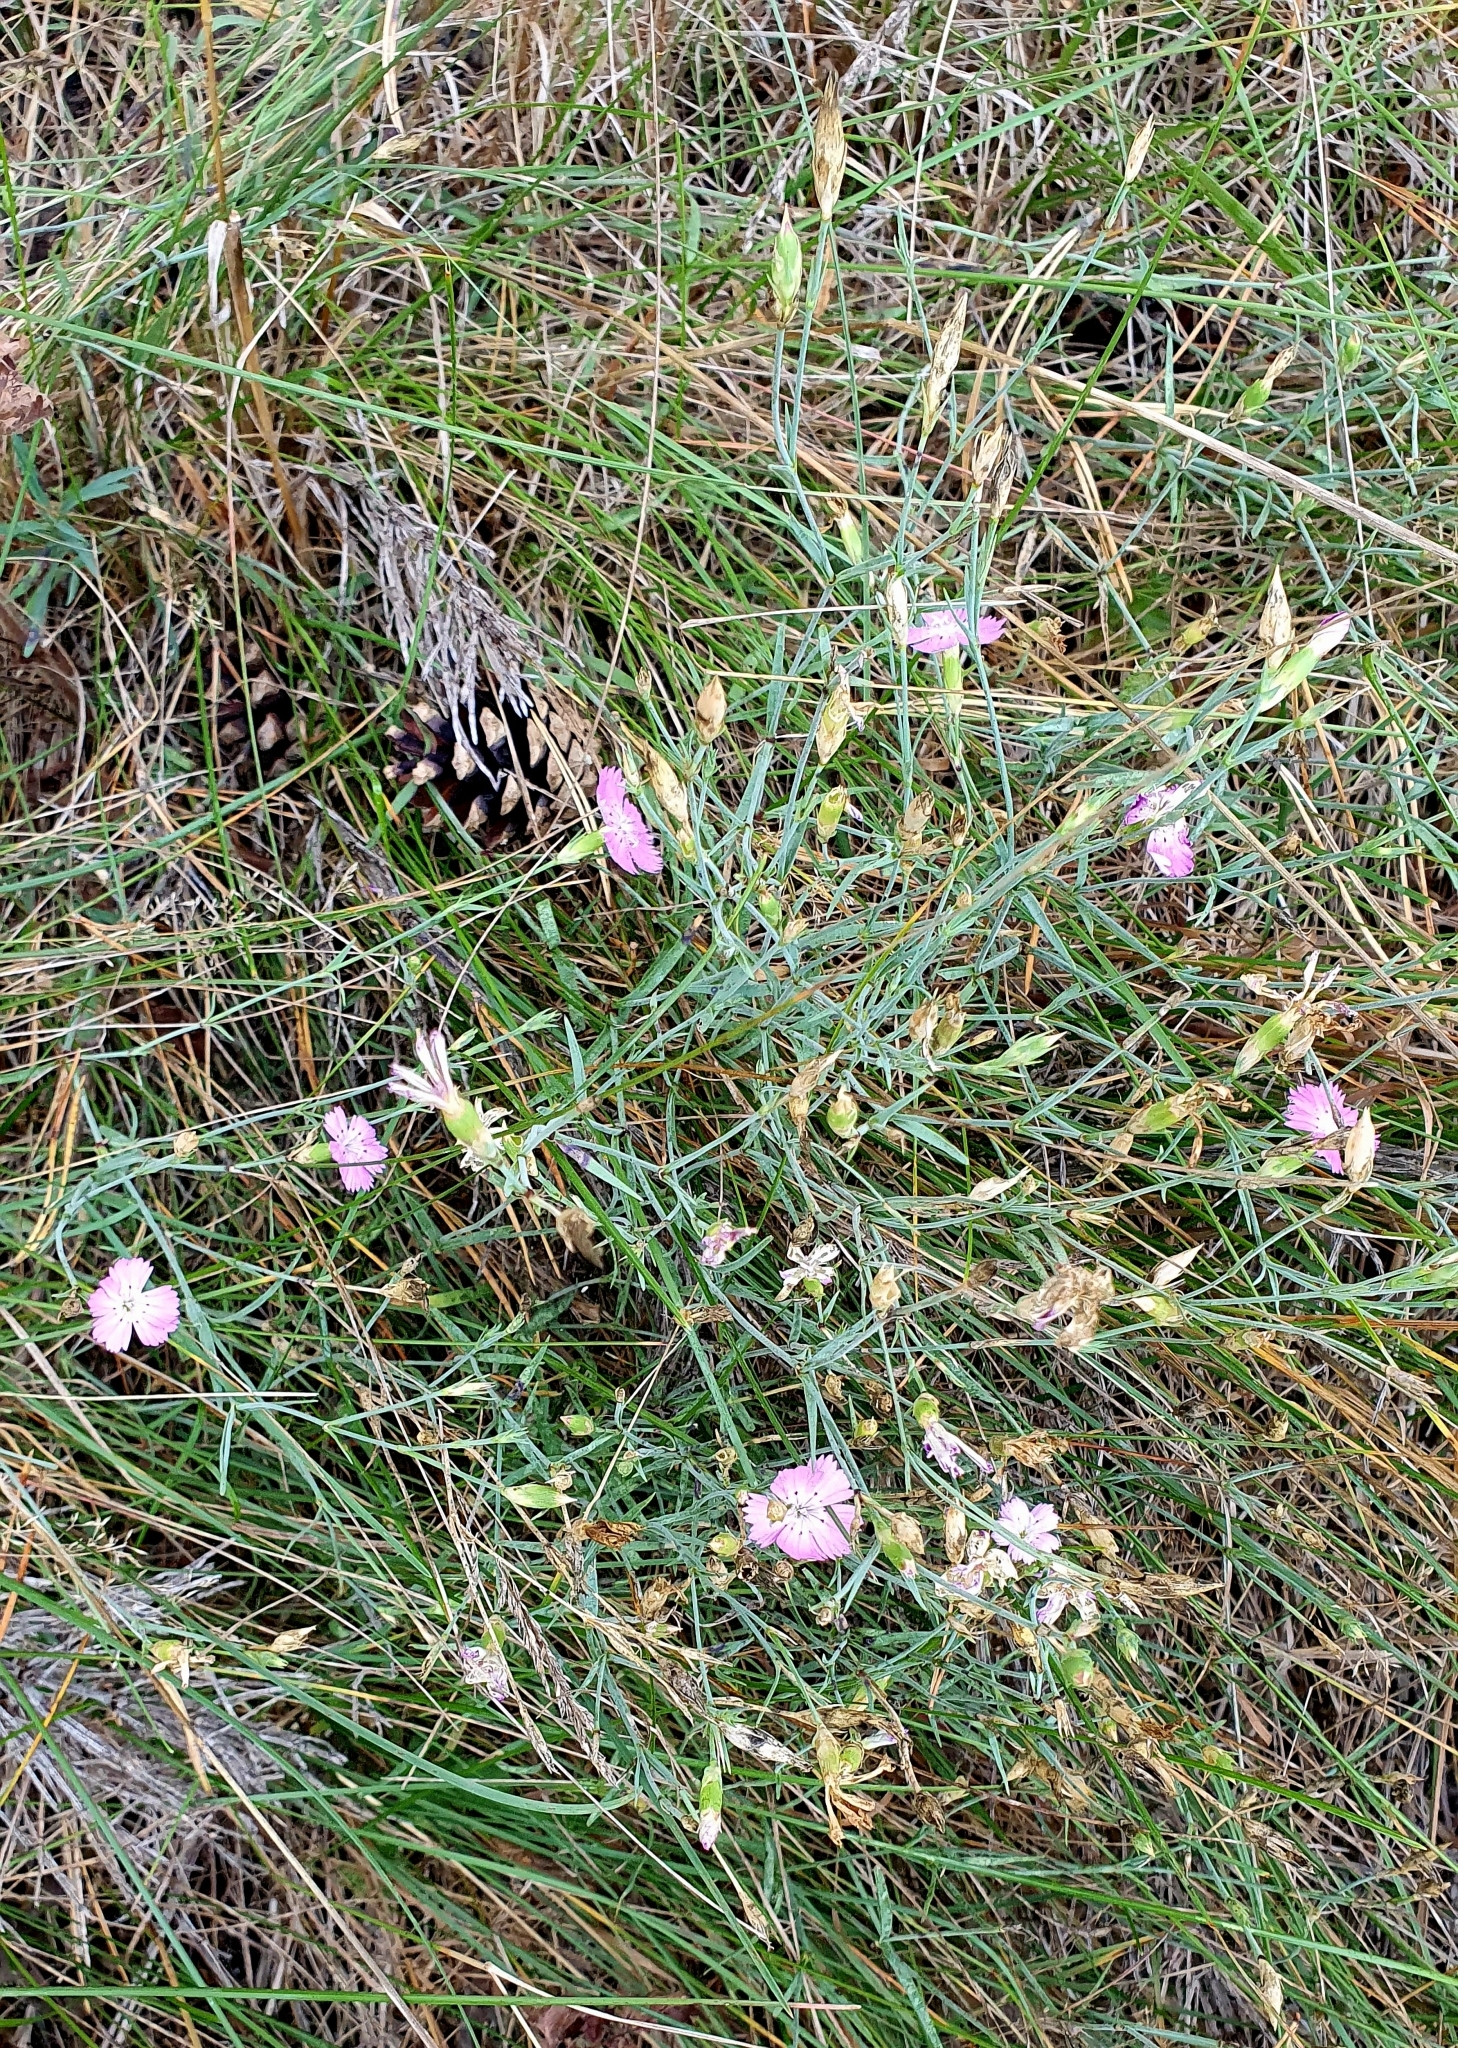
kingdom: Plantae
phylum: Tracheophyta
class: Magnoliopsida
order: Caryophyllales
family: Caryophyllaceae
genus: Dianthus
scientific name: Dianthus chinensis
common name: Rainbow pink
